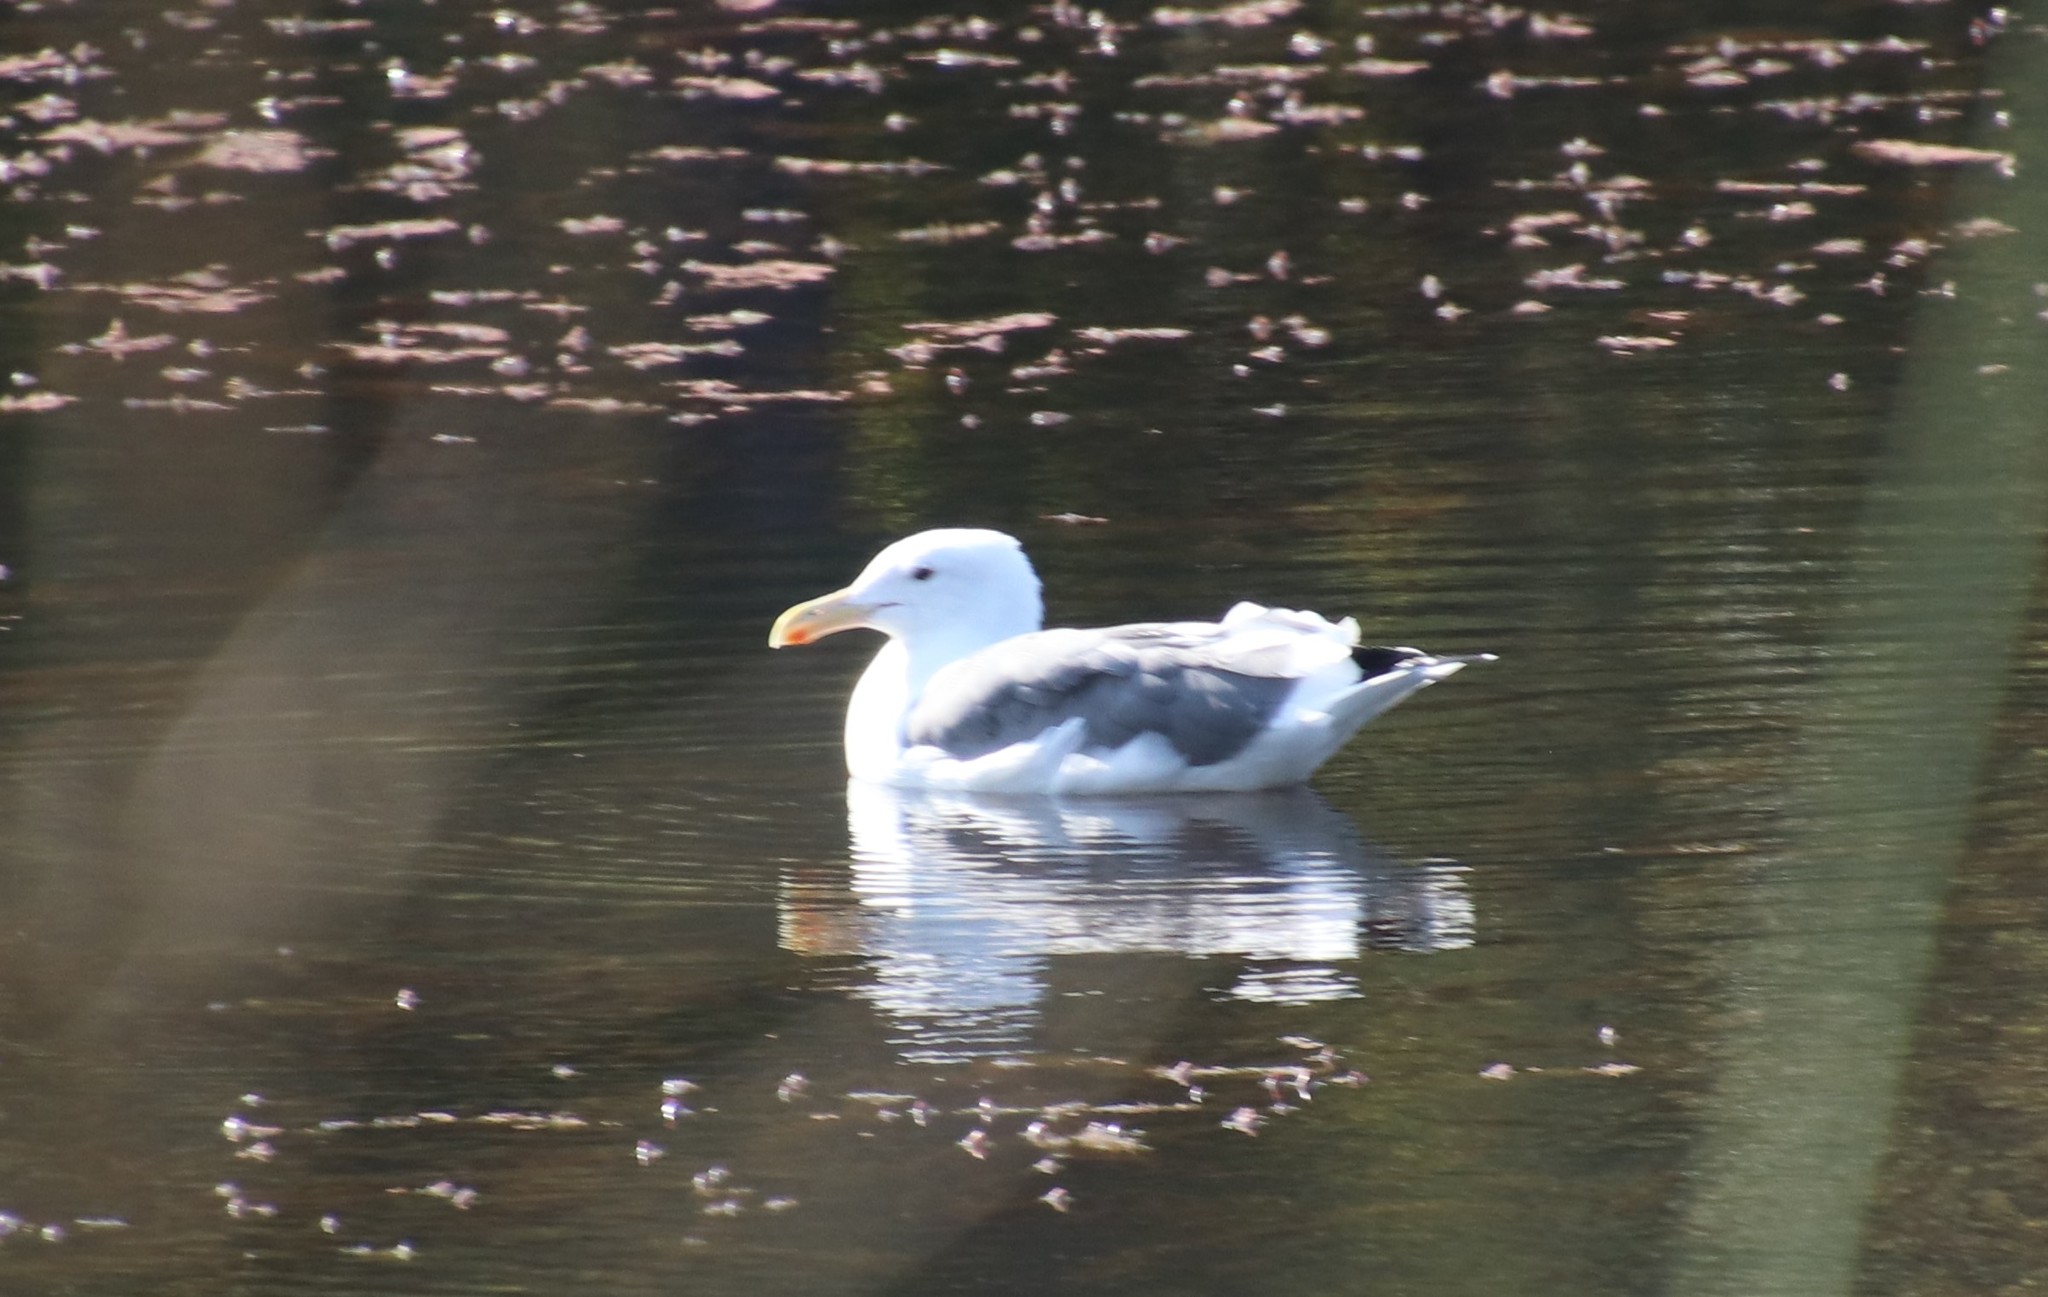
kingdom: Animalia
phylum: Chordata
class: Aves
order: Charadriiformes
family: Laridae
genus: Larus
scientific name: Larus occidentalis
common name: Western gull
